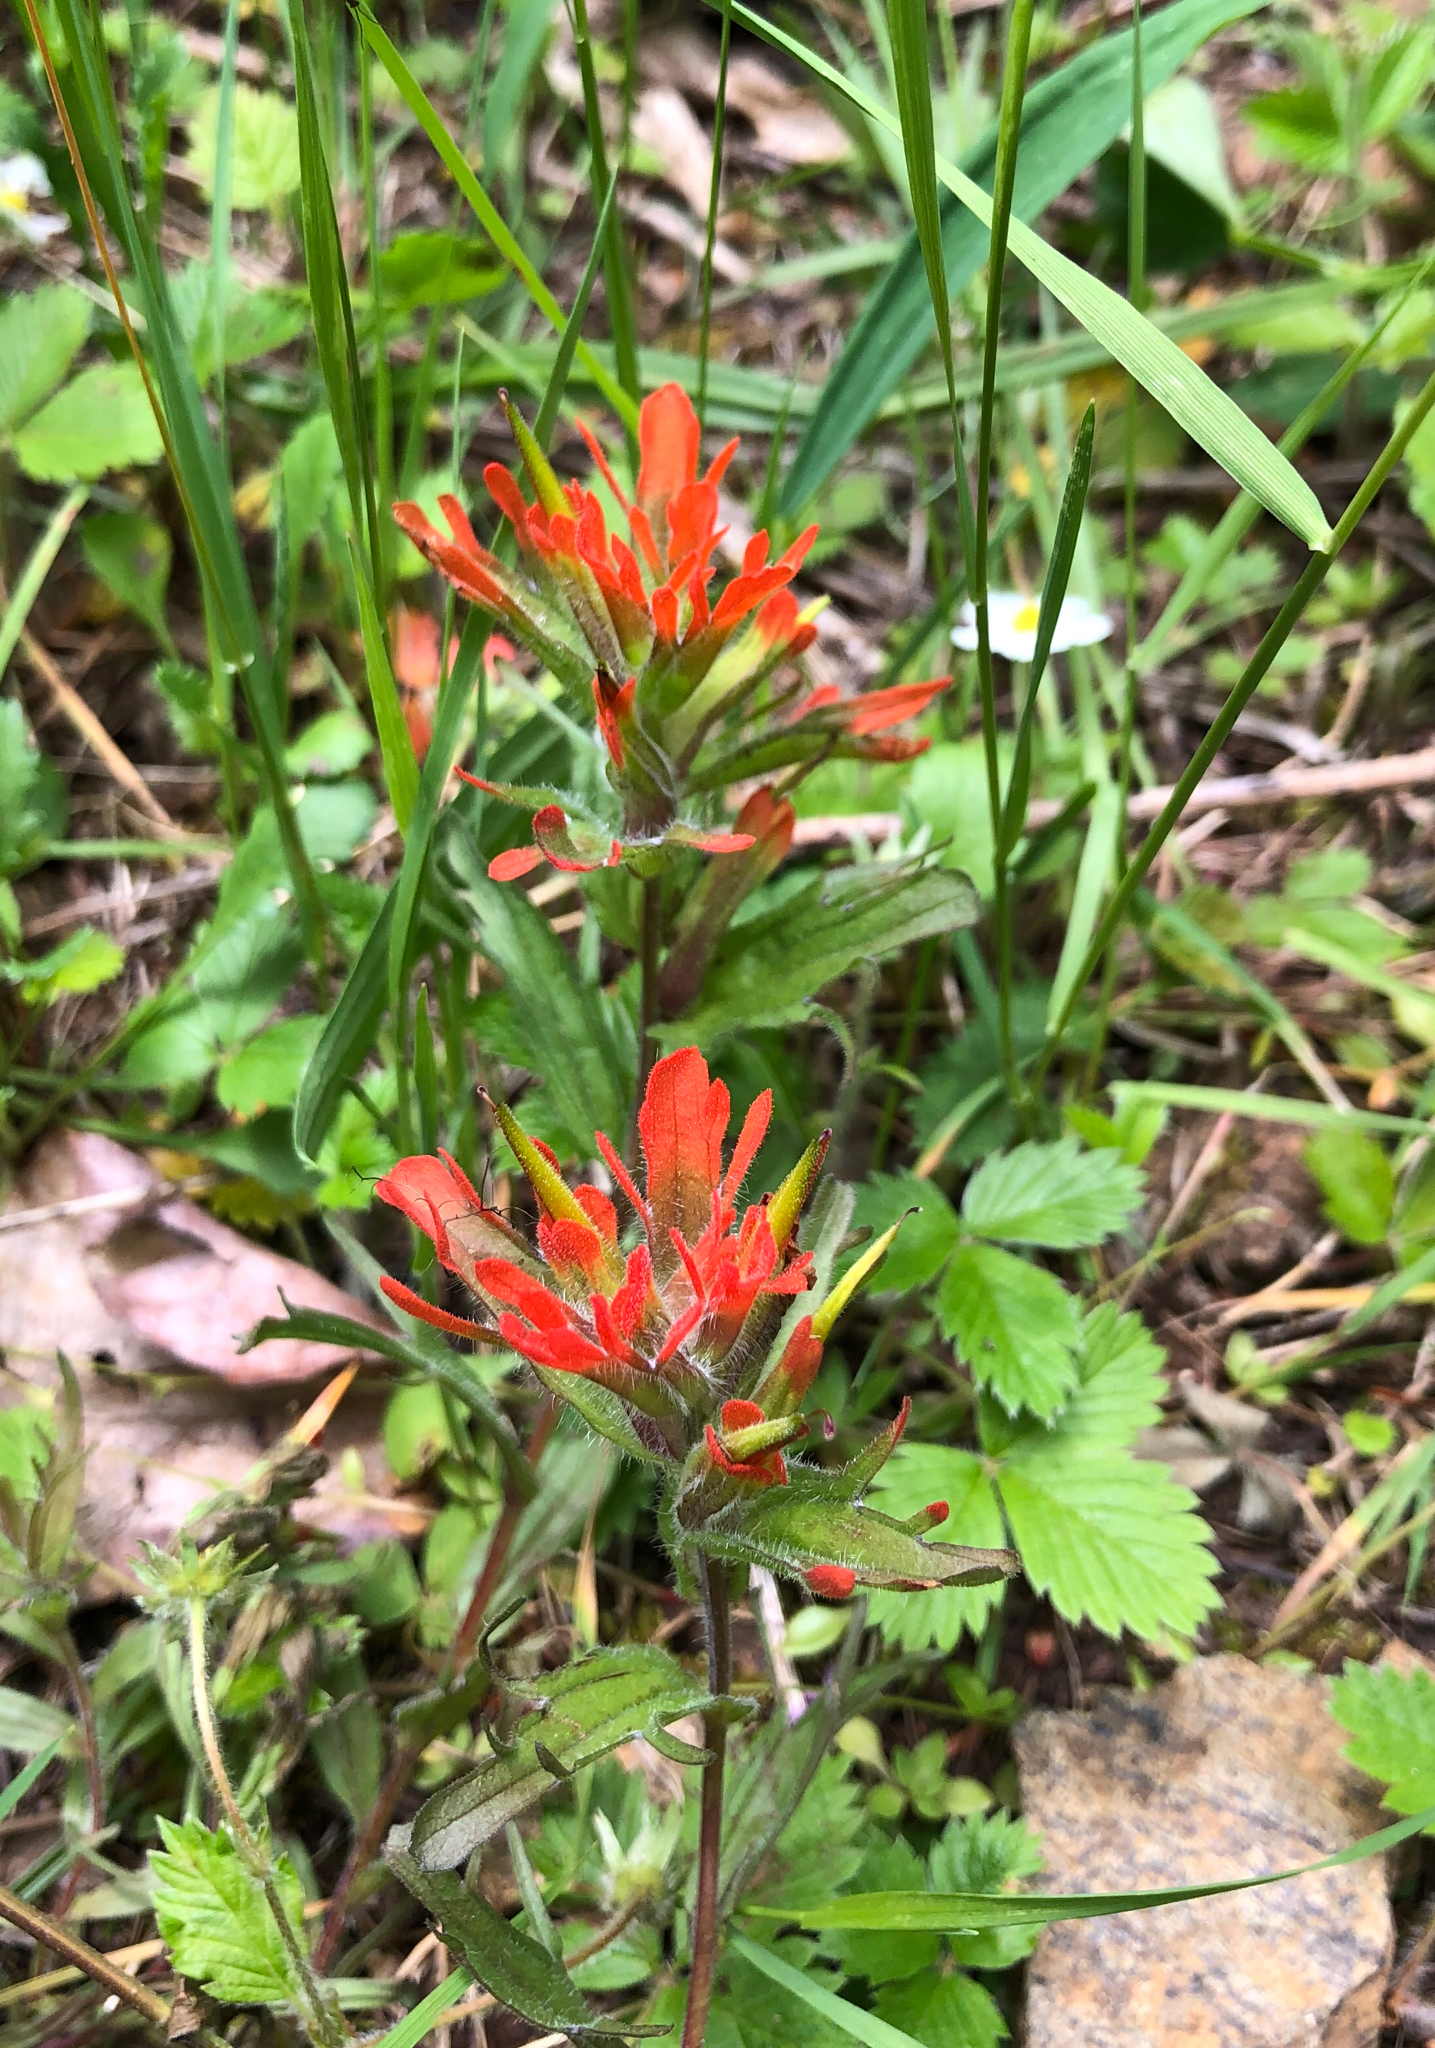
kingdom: Plantae
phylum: Tracheophyta
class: Magnoliopsida
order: Lamiales
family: Orobanchaceae
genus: Castilleja
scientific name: Castilleja hispida
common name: Bristly paintbrush
